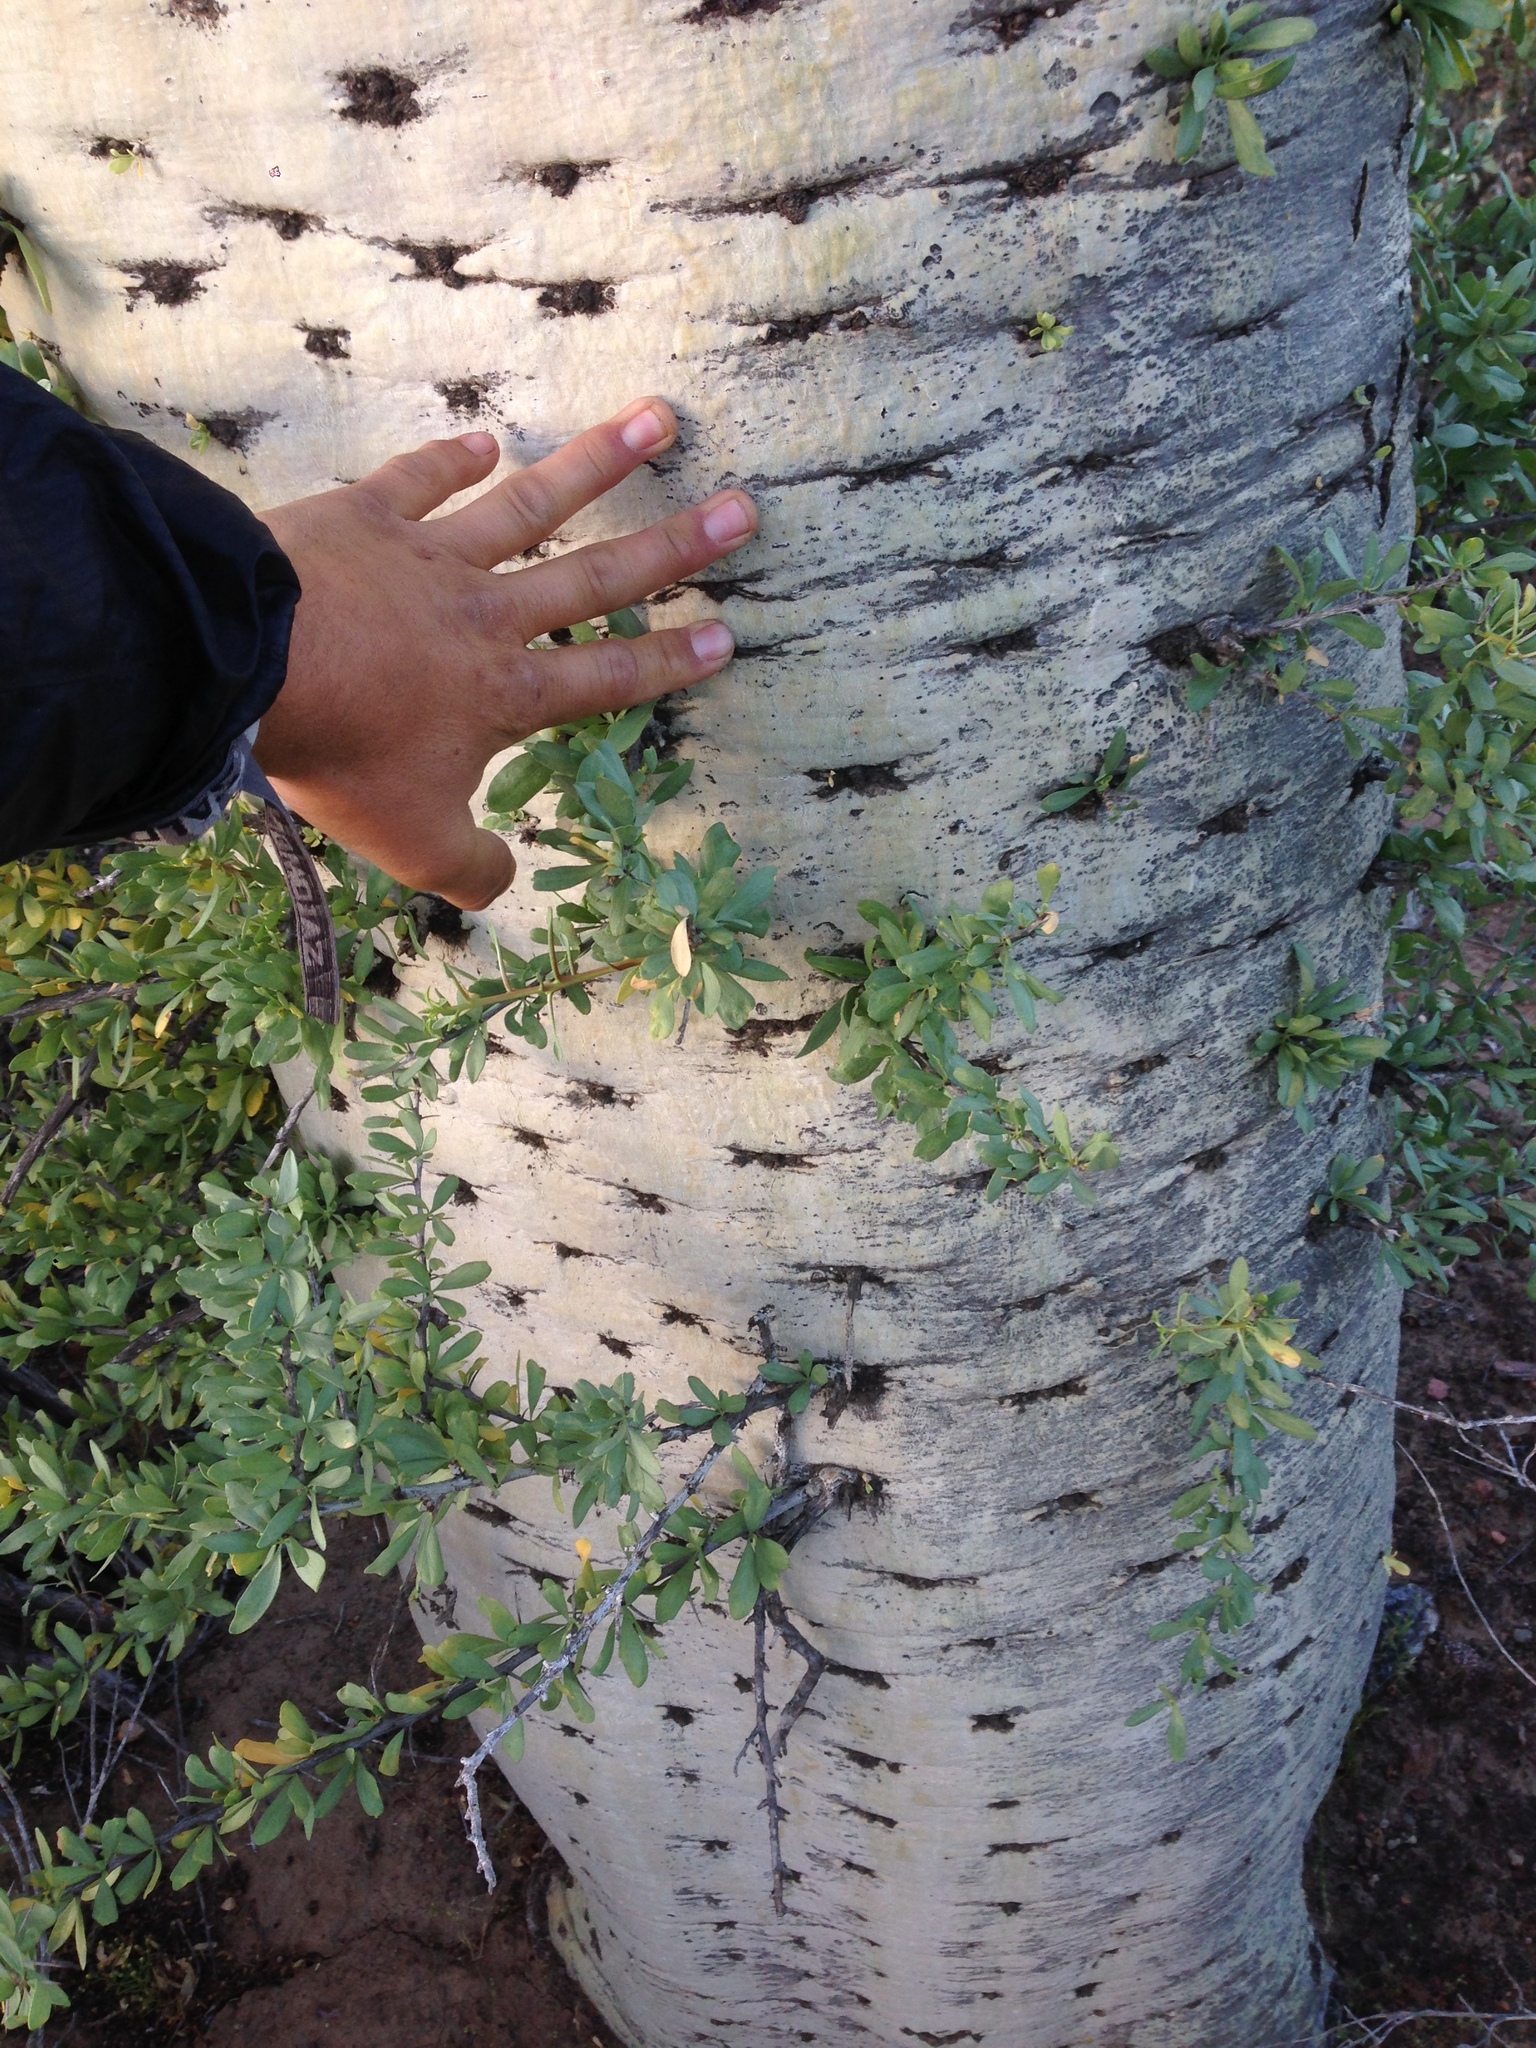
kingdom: Plantae
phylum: Tracheophyta
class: Magnoliopsida
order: Ericales
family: Fouquieriaceae
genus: Fouquieria
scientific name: Fouquieria columnaris
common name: Boojumtree
